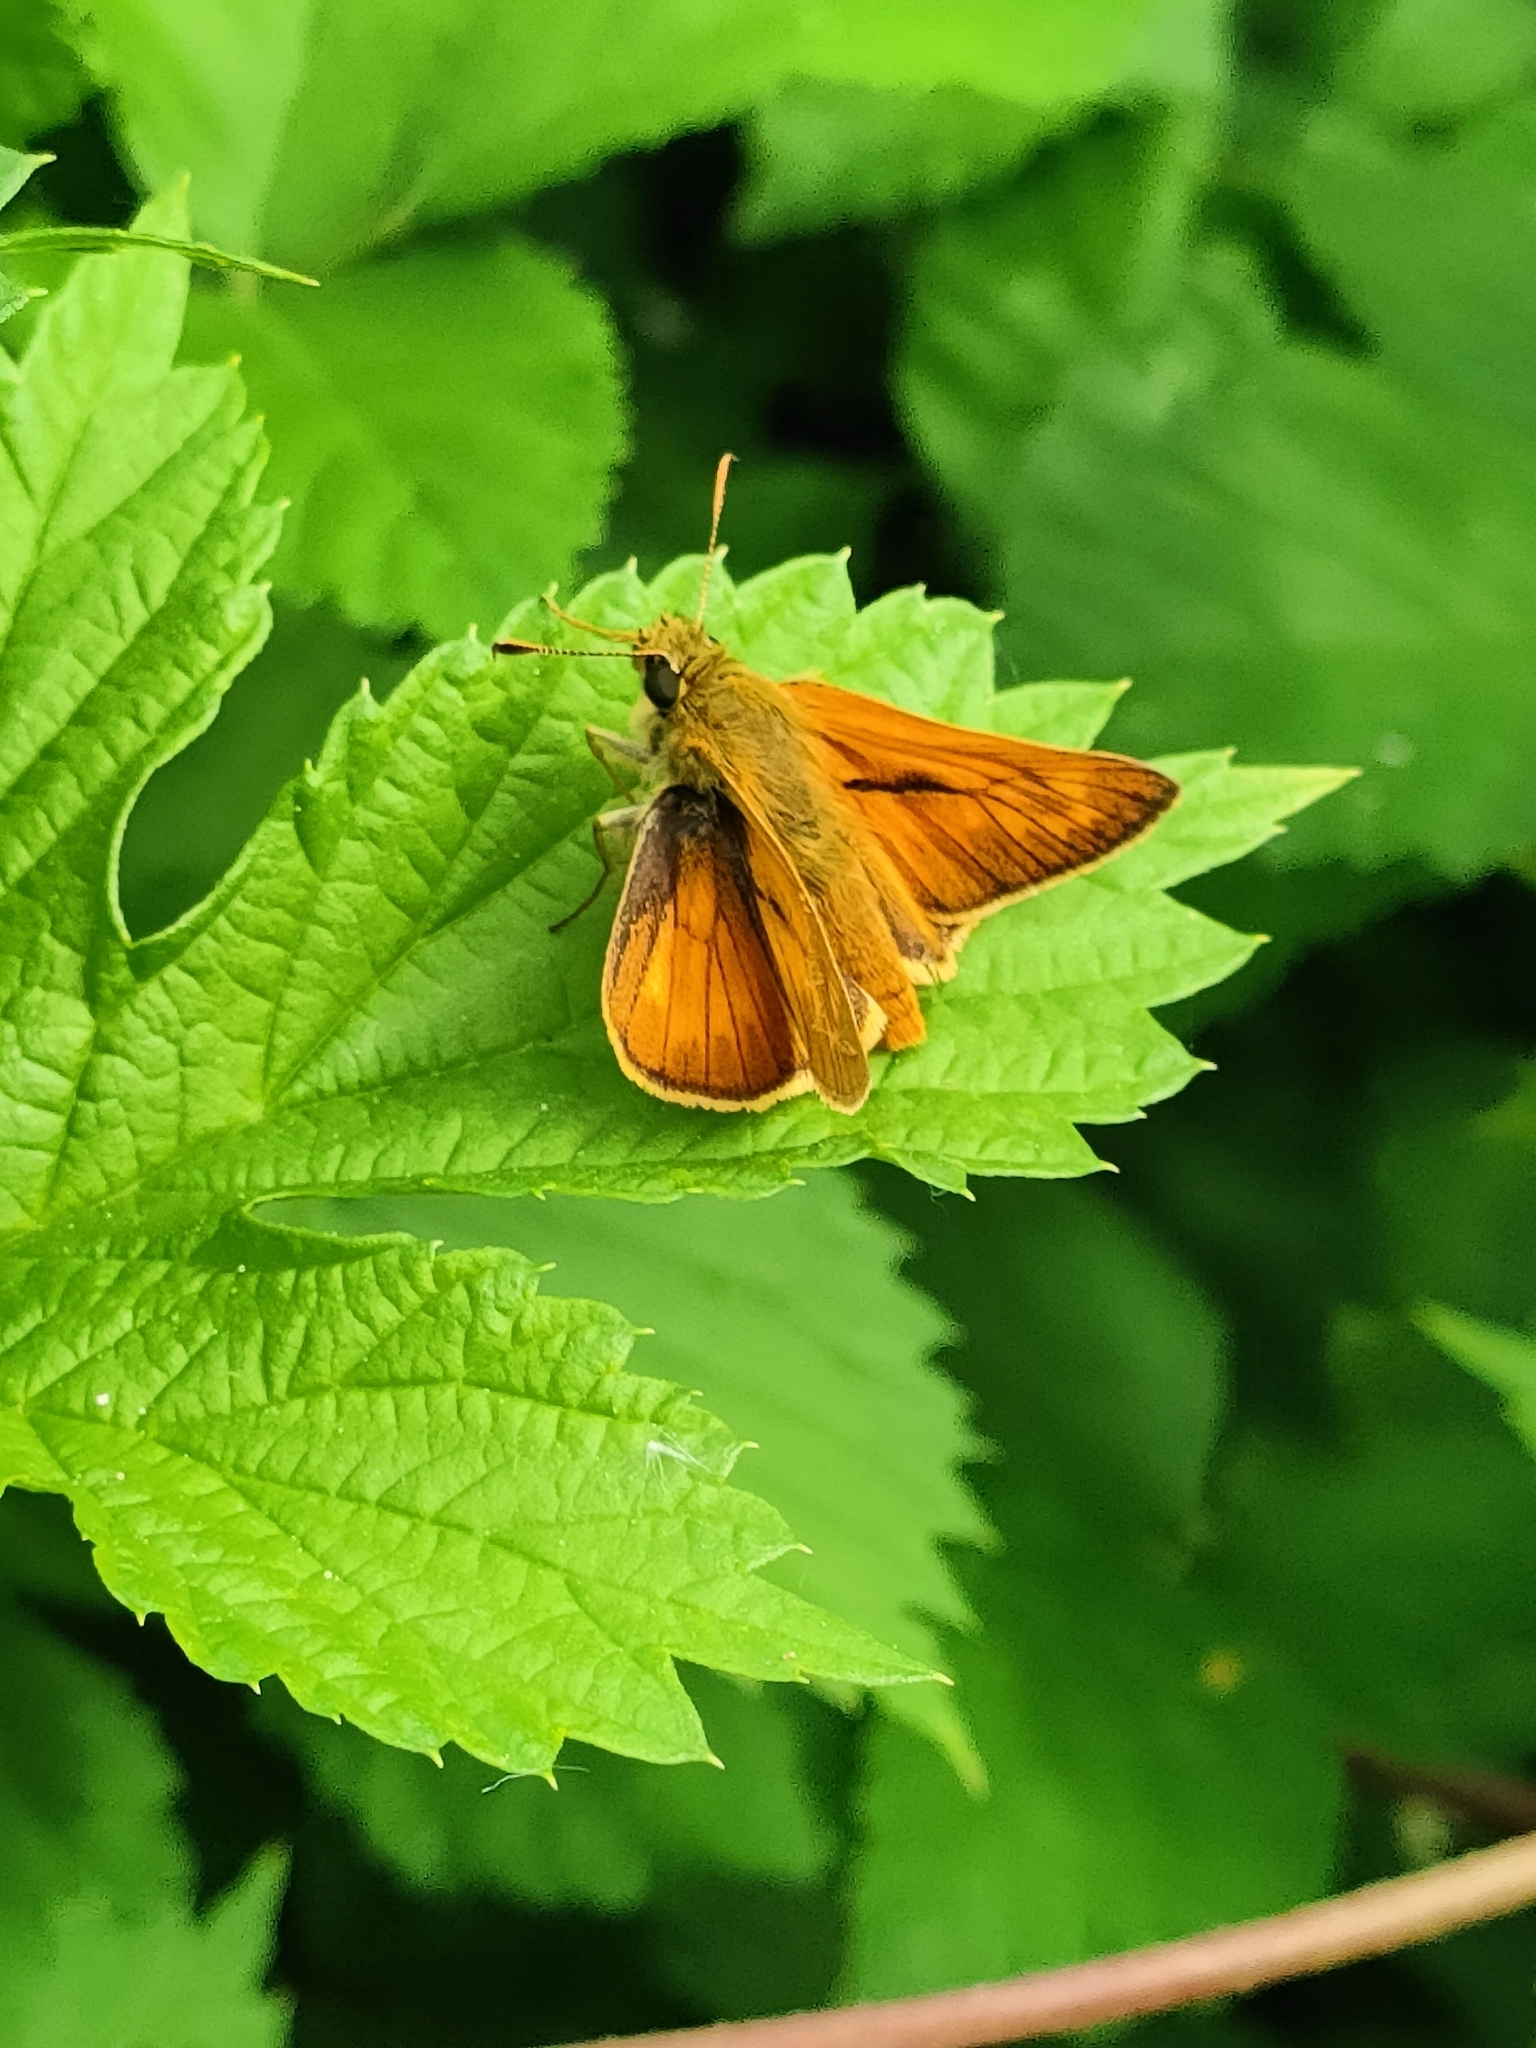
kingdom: Animalia
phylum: Arthropoda
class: Insecta
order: Lepidoptera
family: Hesperiidae
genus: Ochlodes
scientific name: Ochlodes venata
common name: Large skipper
